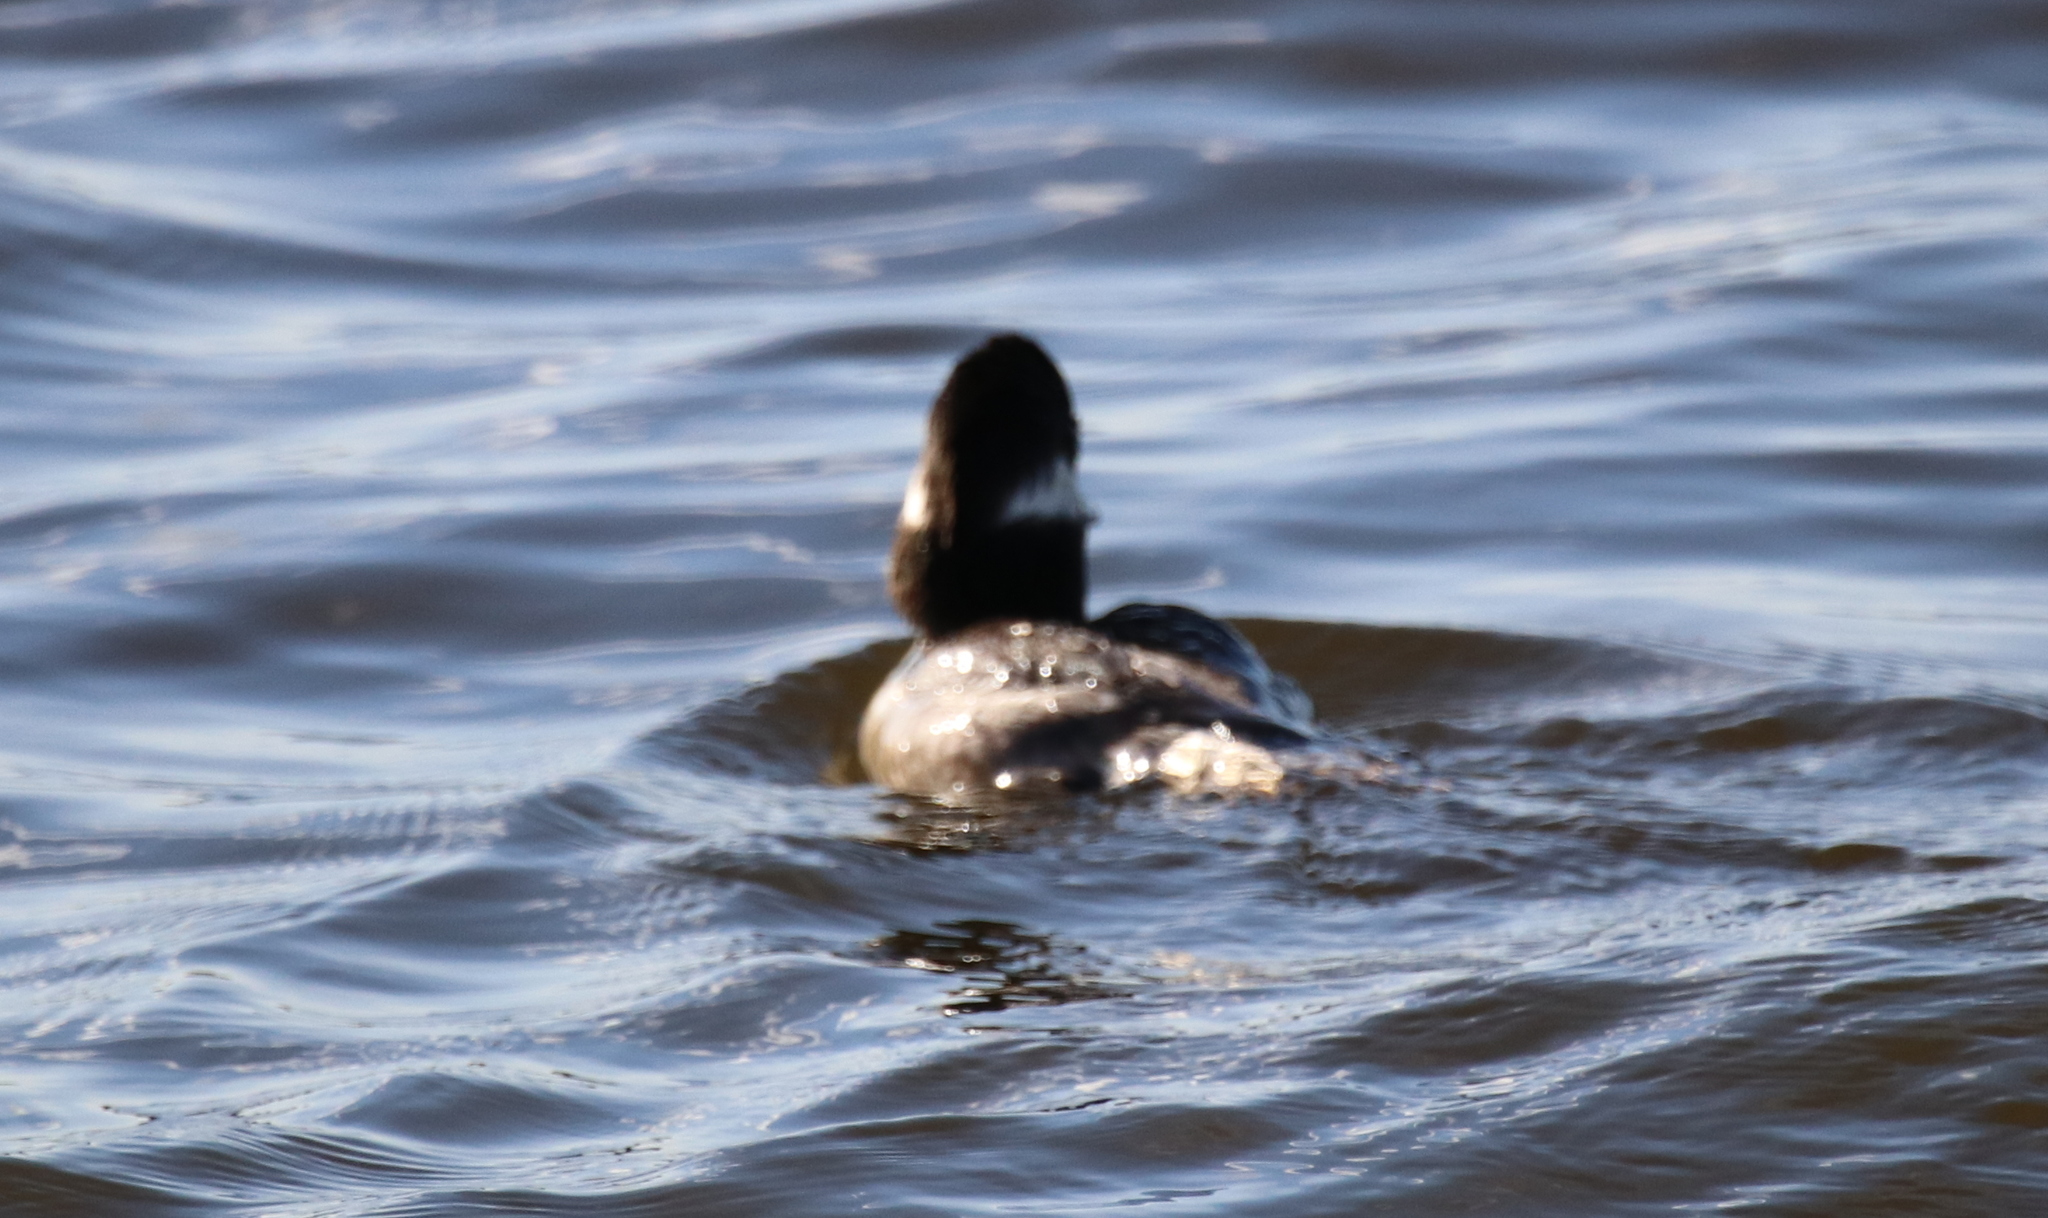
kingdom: Animalia
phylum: Chordata
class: Aves
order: Anseriformes
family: Anatidae
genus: Bucephala
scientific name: Bucephala albeola
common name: Bufflehead
